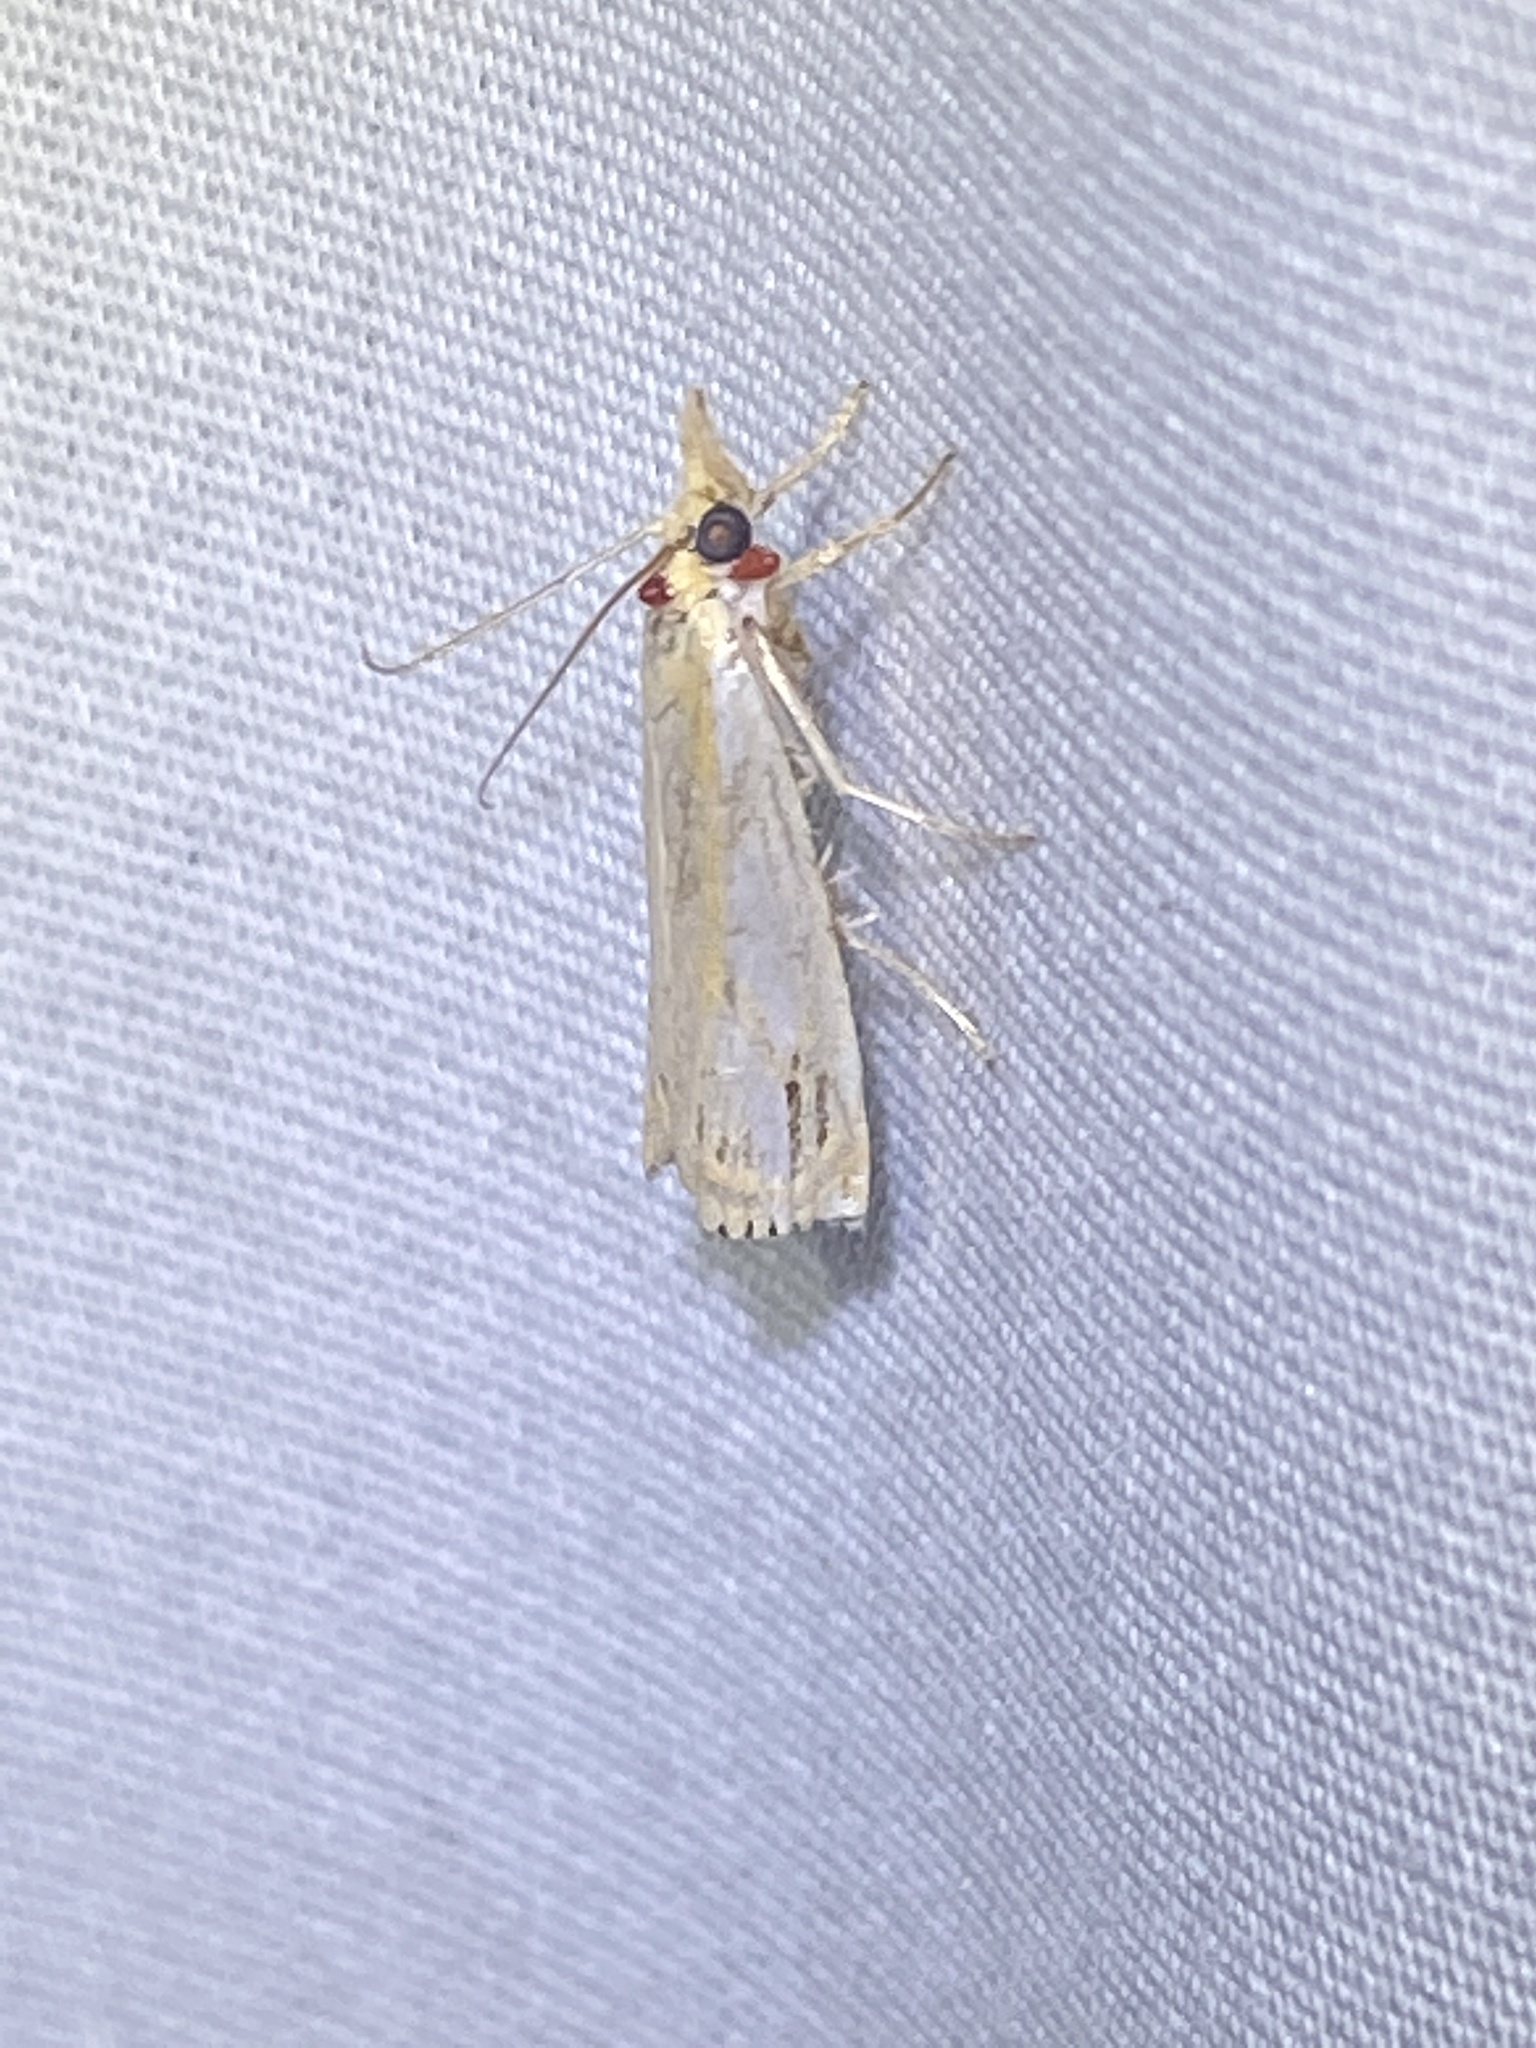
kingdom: Animalia
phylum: Arthropoda
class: Insecta
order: Lepidoptera
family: Crambidae
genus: Crambus
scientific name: Crambus agitatellus
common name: Double-banded grass-veneer
